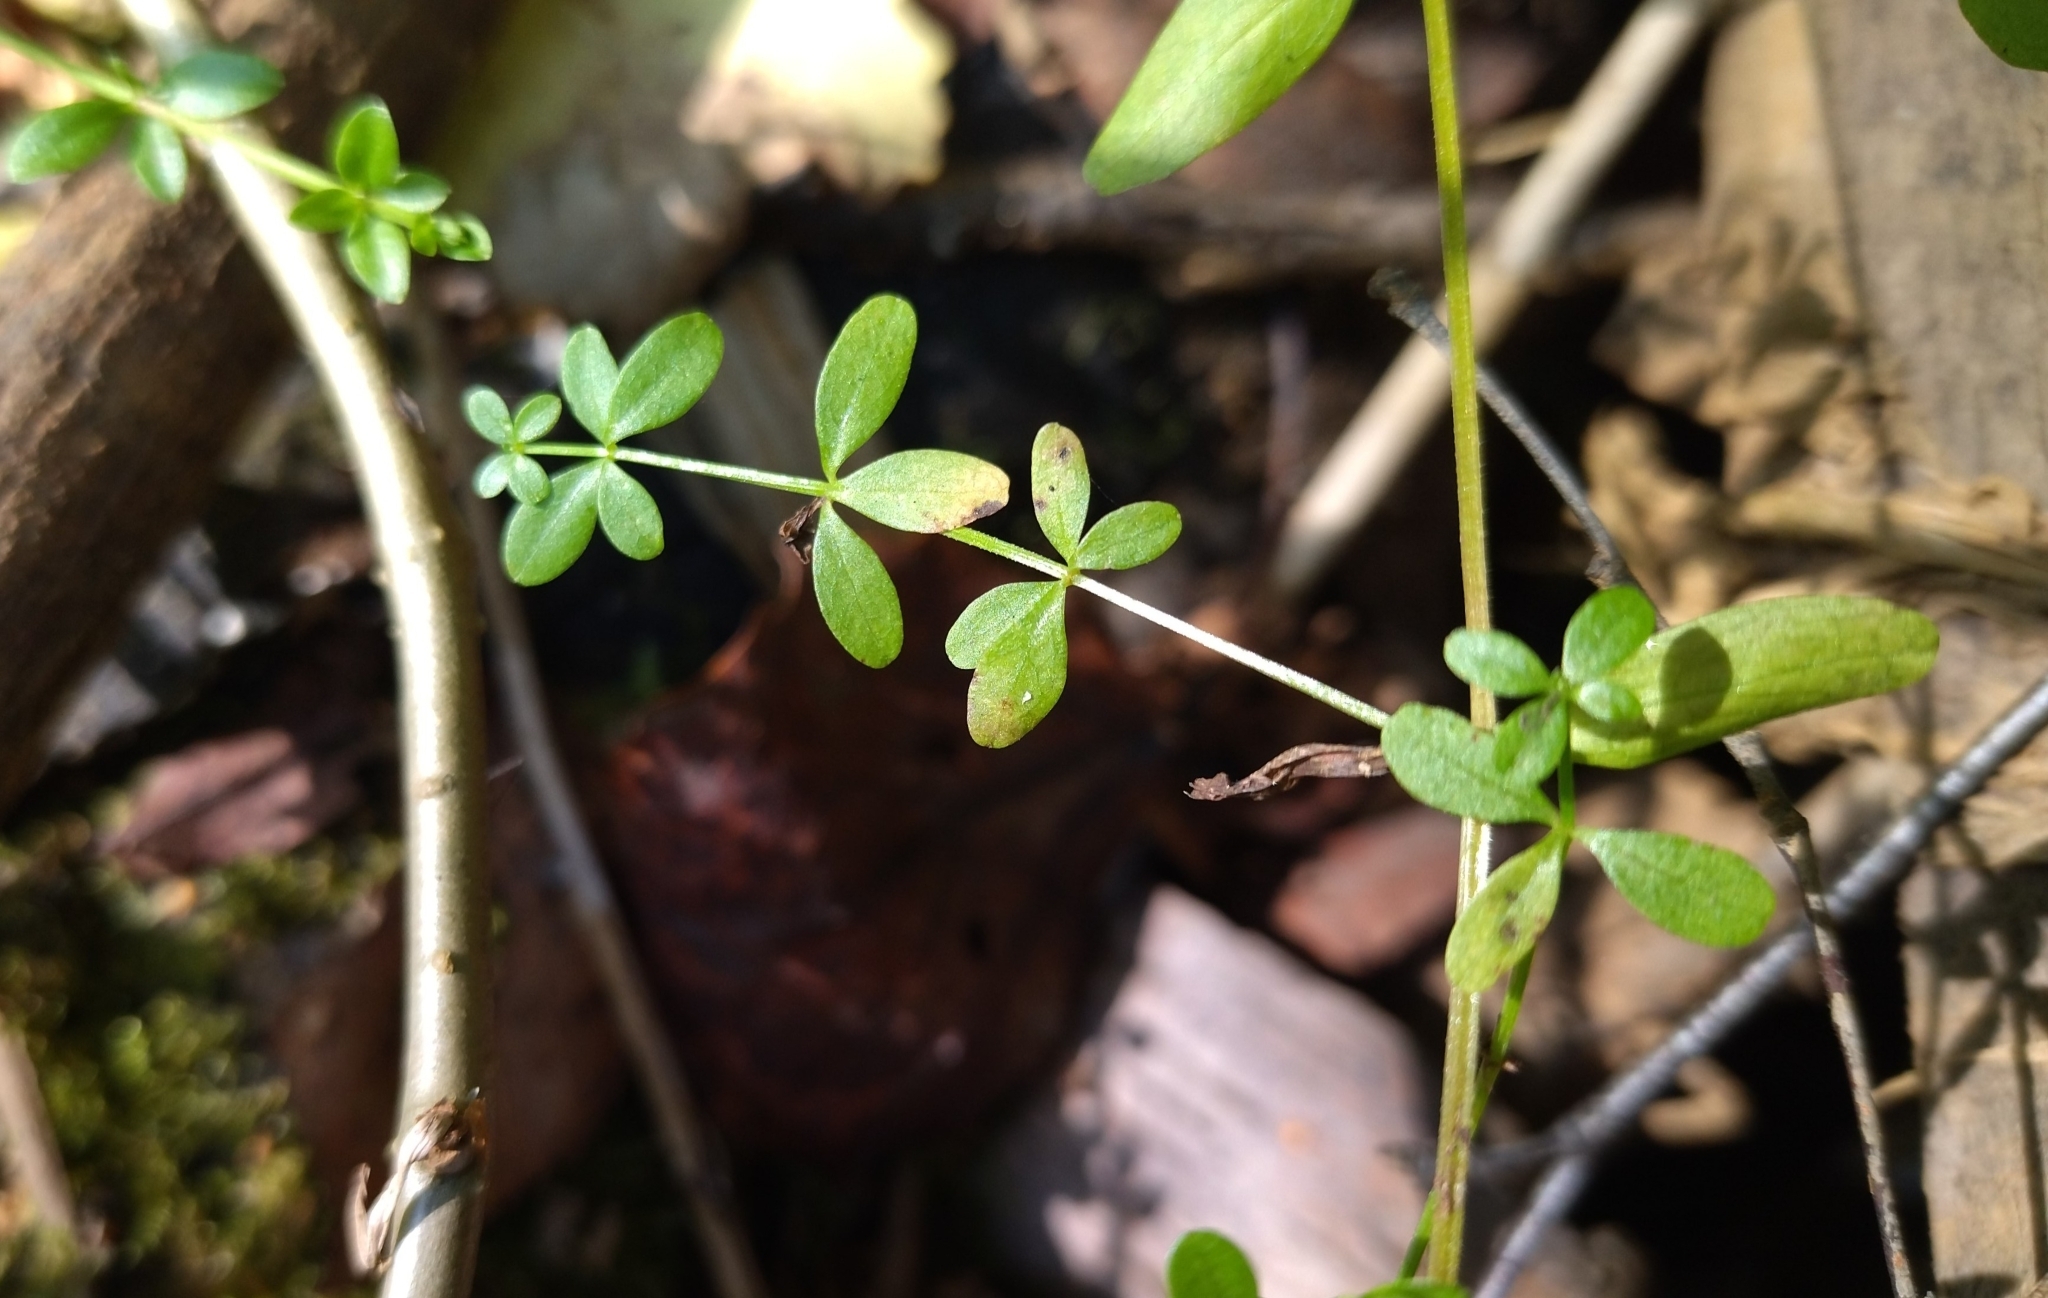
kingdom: Plantae
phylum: Tracheophyta
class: Magnoliopsida
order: Gentianales
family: Rubiaceae
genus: Galium
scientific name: Galium palustre
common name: Common marsh-bedstraw
